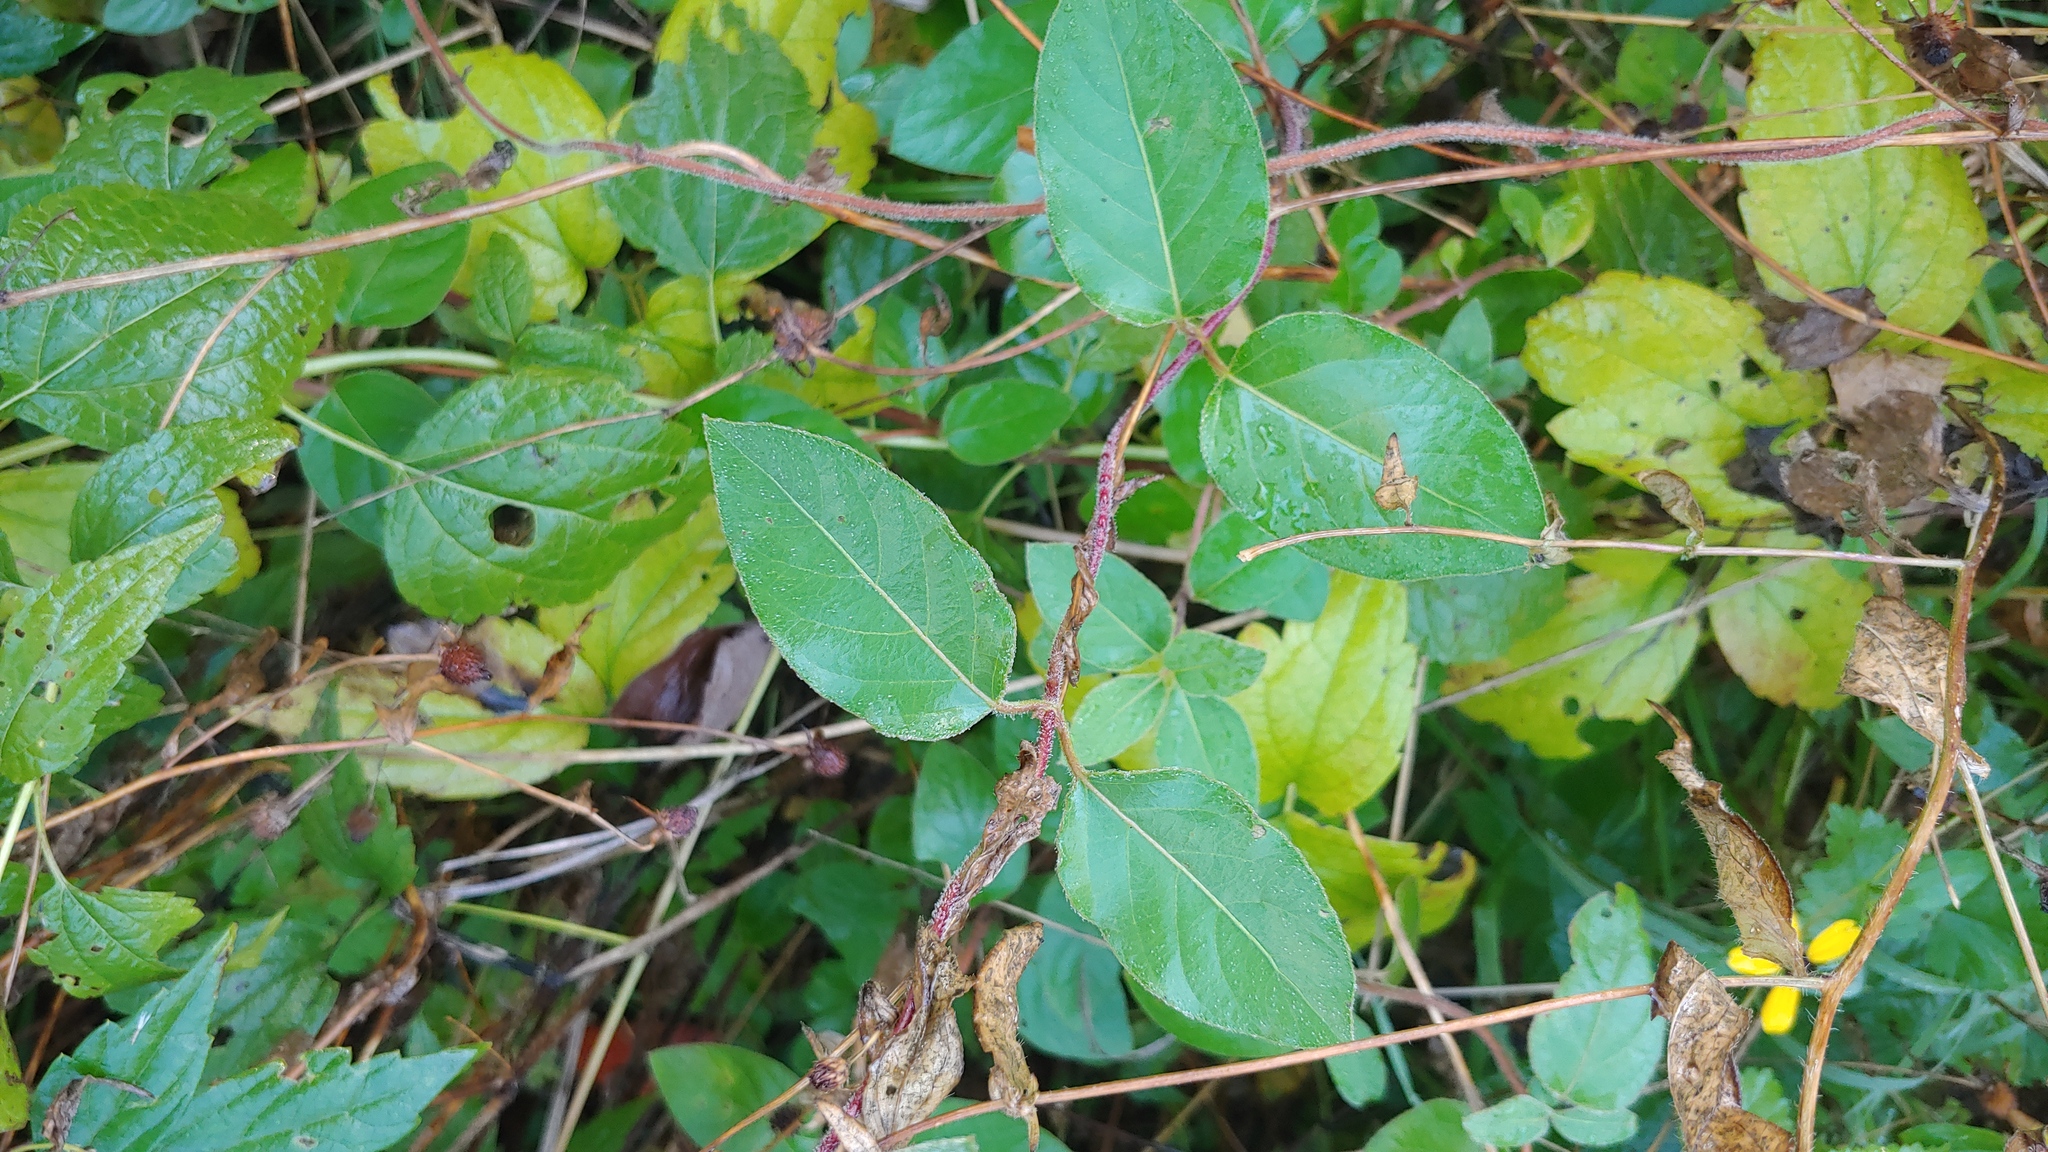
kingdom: Plantae
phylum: Tracheophyta
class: Magnoliopsida
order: Dipsacales
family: Caprifoliaceae
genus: Lonicera
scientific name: Lonicera japonica
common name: Japanese honeysuckle
